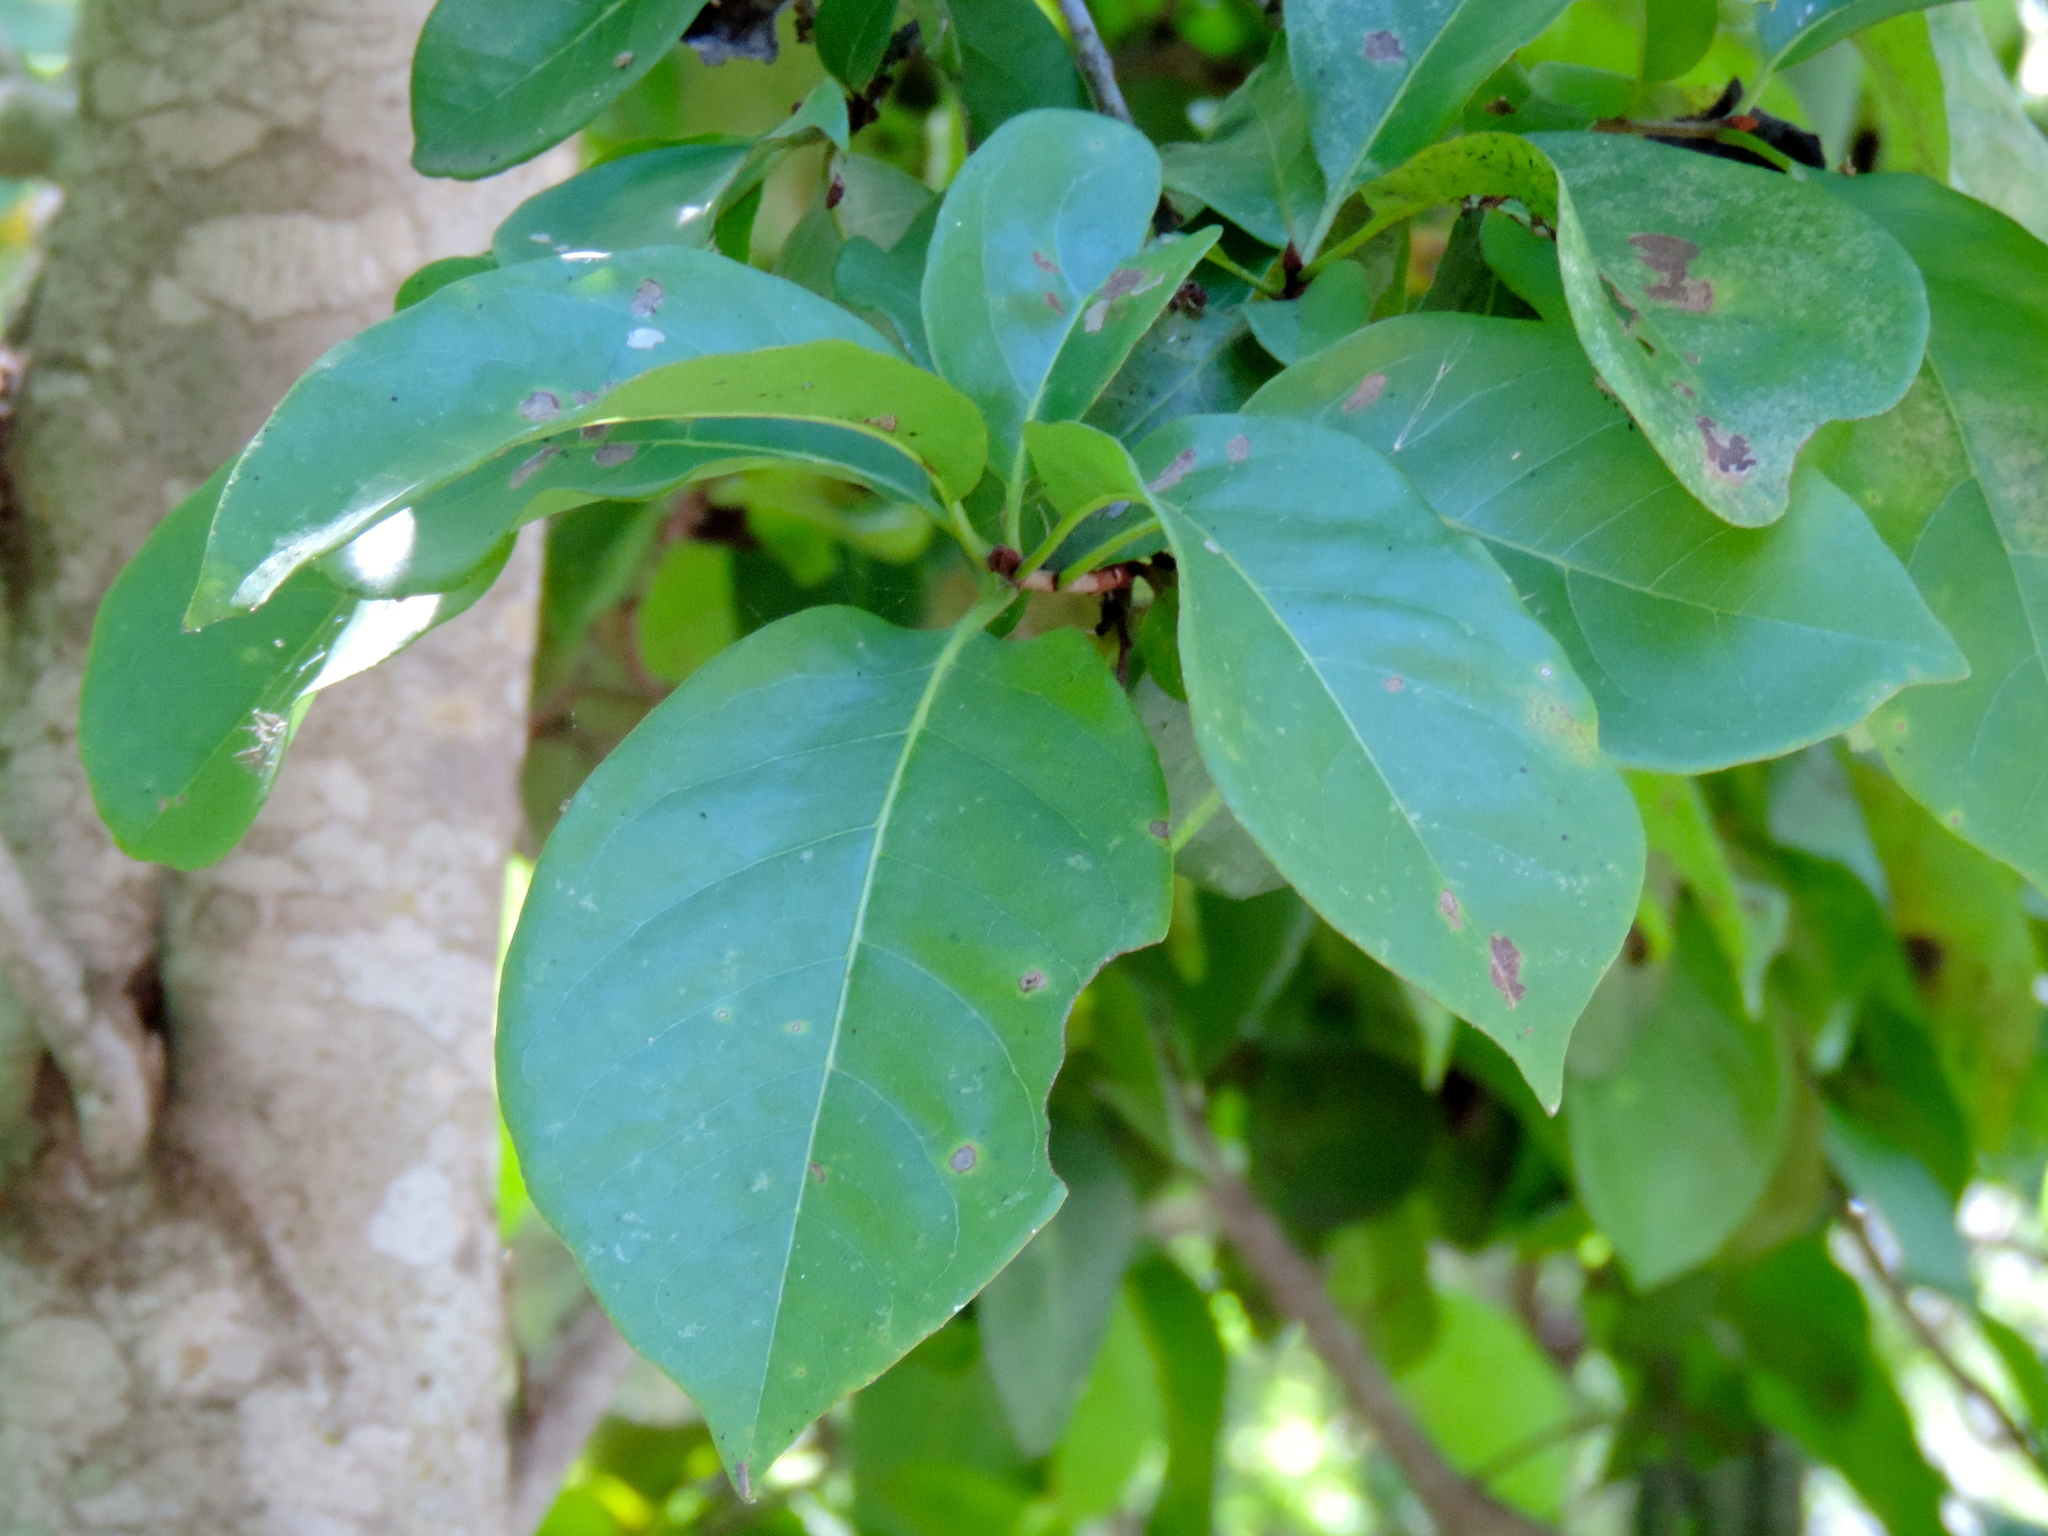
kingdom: Plantae
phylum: Tracheophyta
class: Magnoliopsida
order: Malpighiales
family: Malpighiaceae
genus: Bunchosia
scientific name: Bunchosia palmeri
